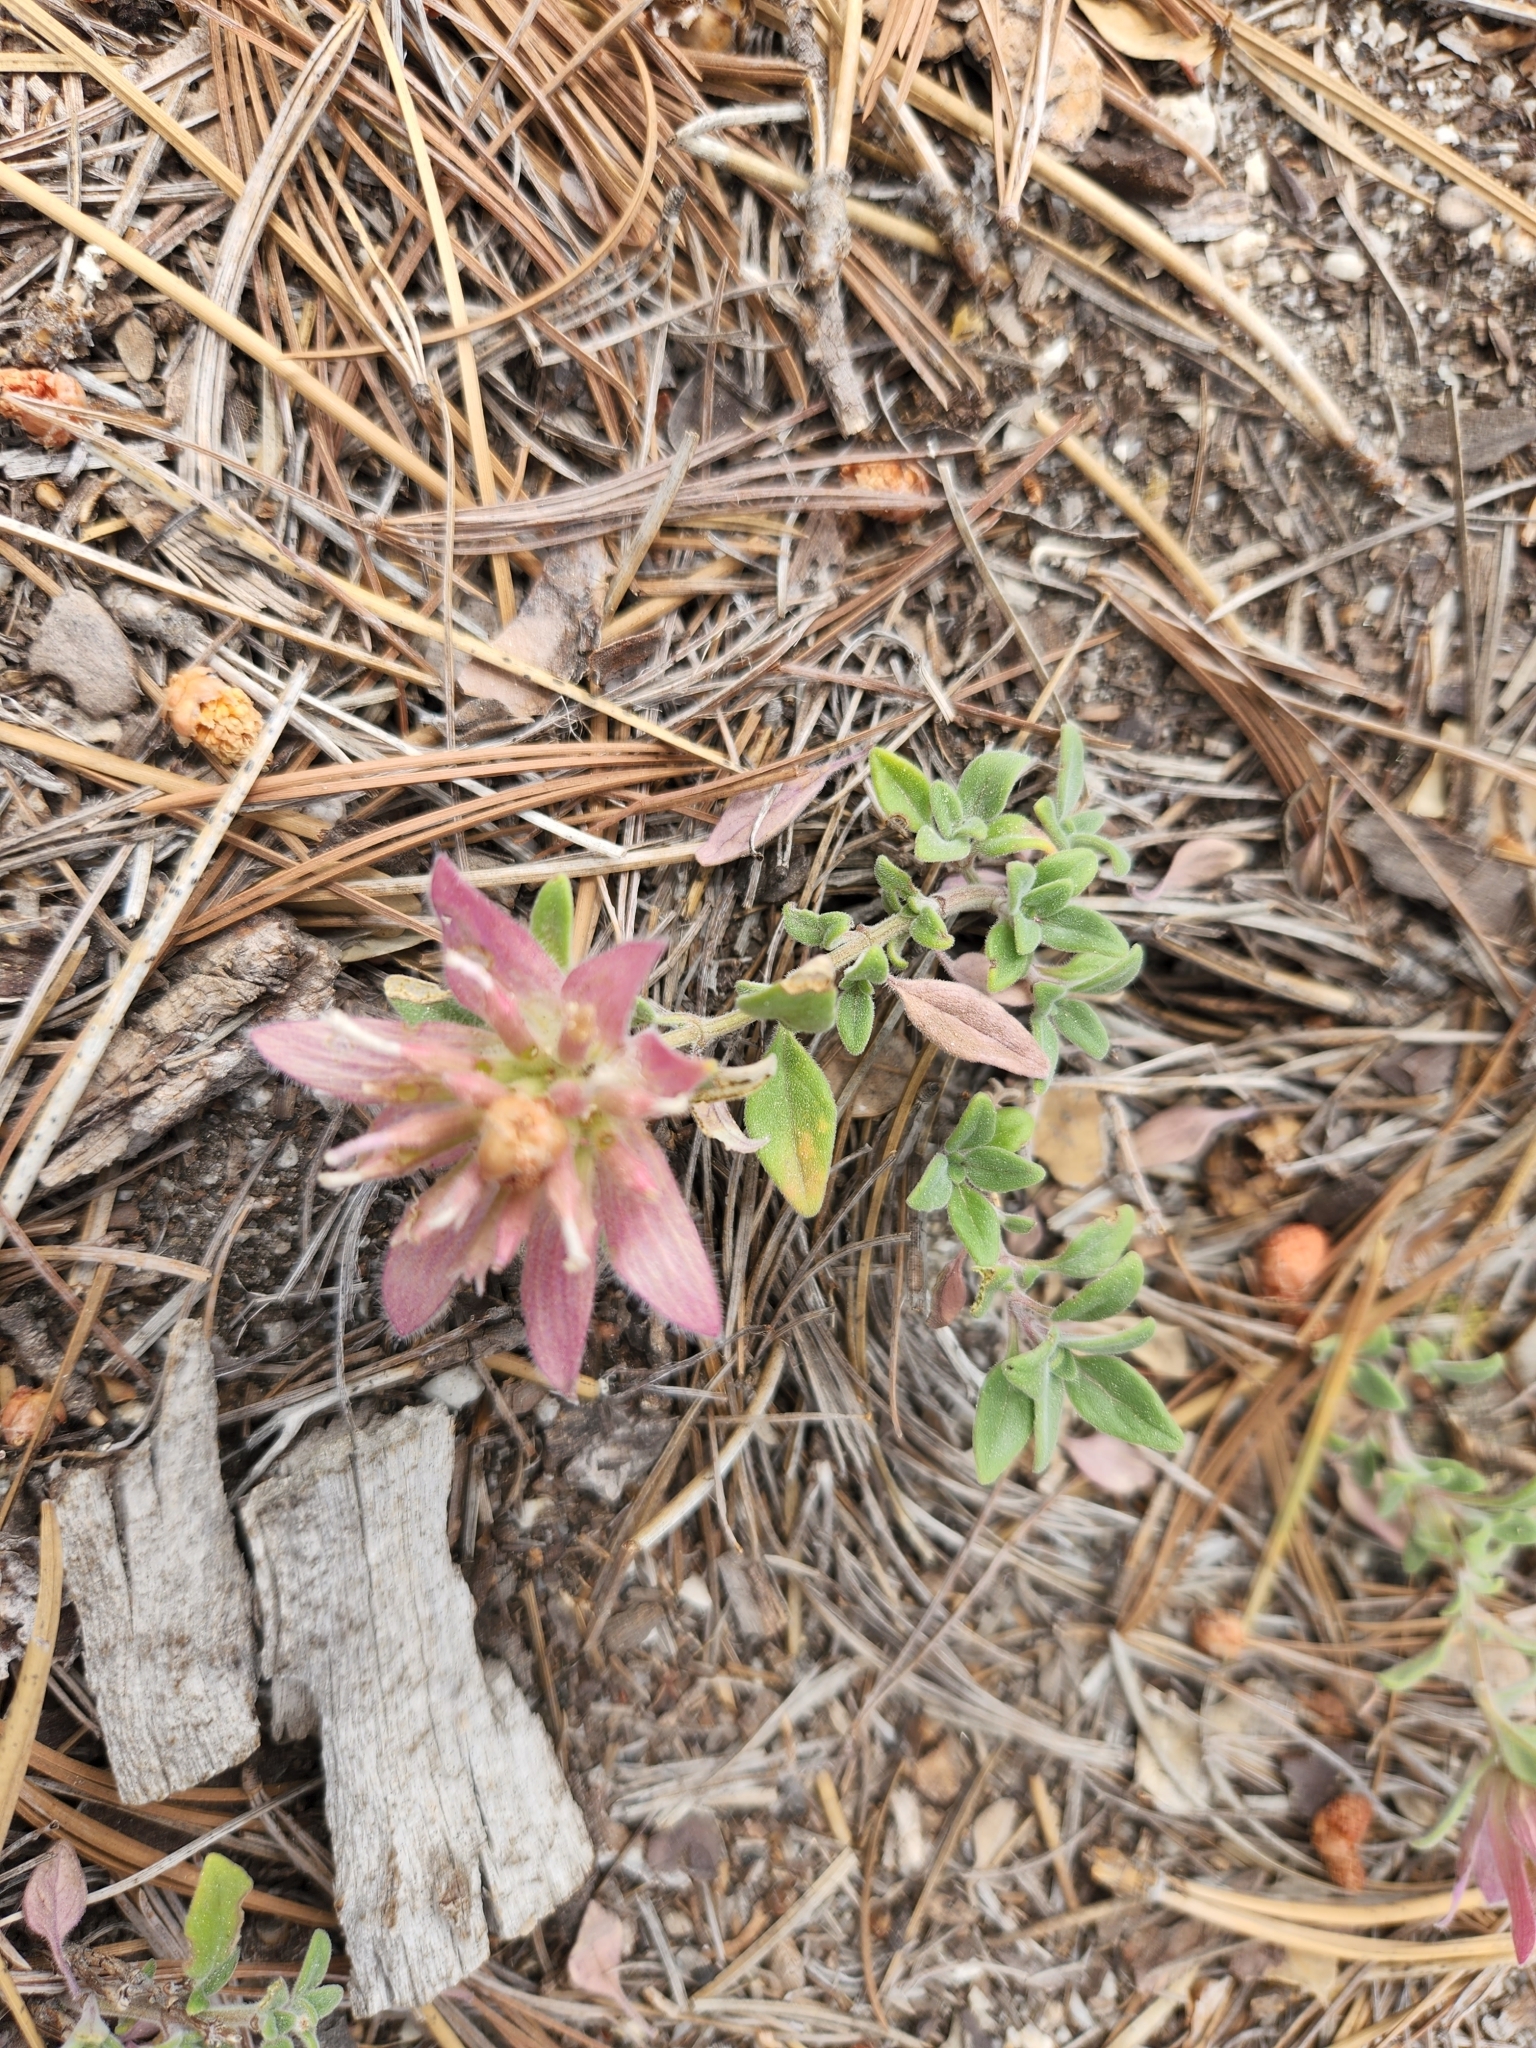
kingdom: Plantae
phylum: Tracheophyta
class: Magnoliopsida
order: Lamiales
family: Lamiaceae
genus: Monardella
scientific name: Monardella nana
